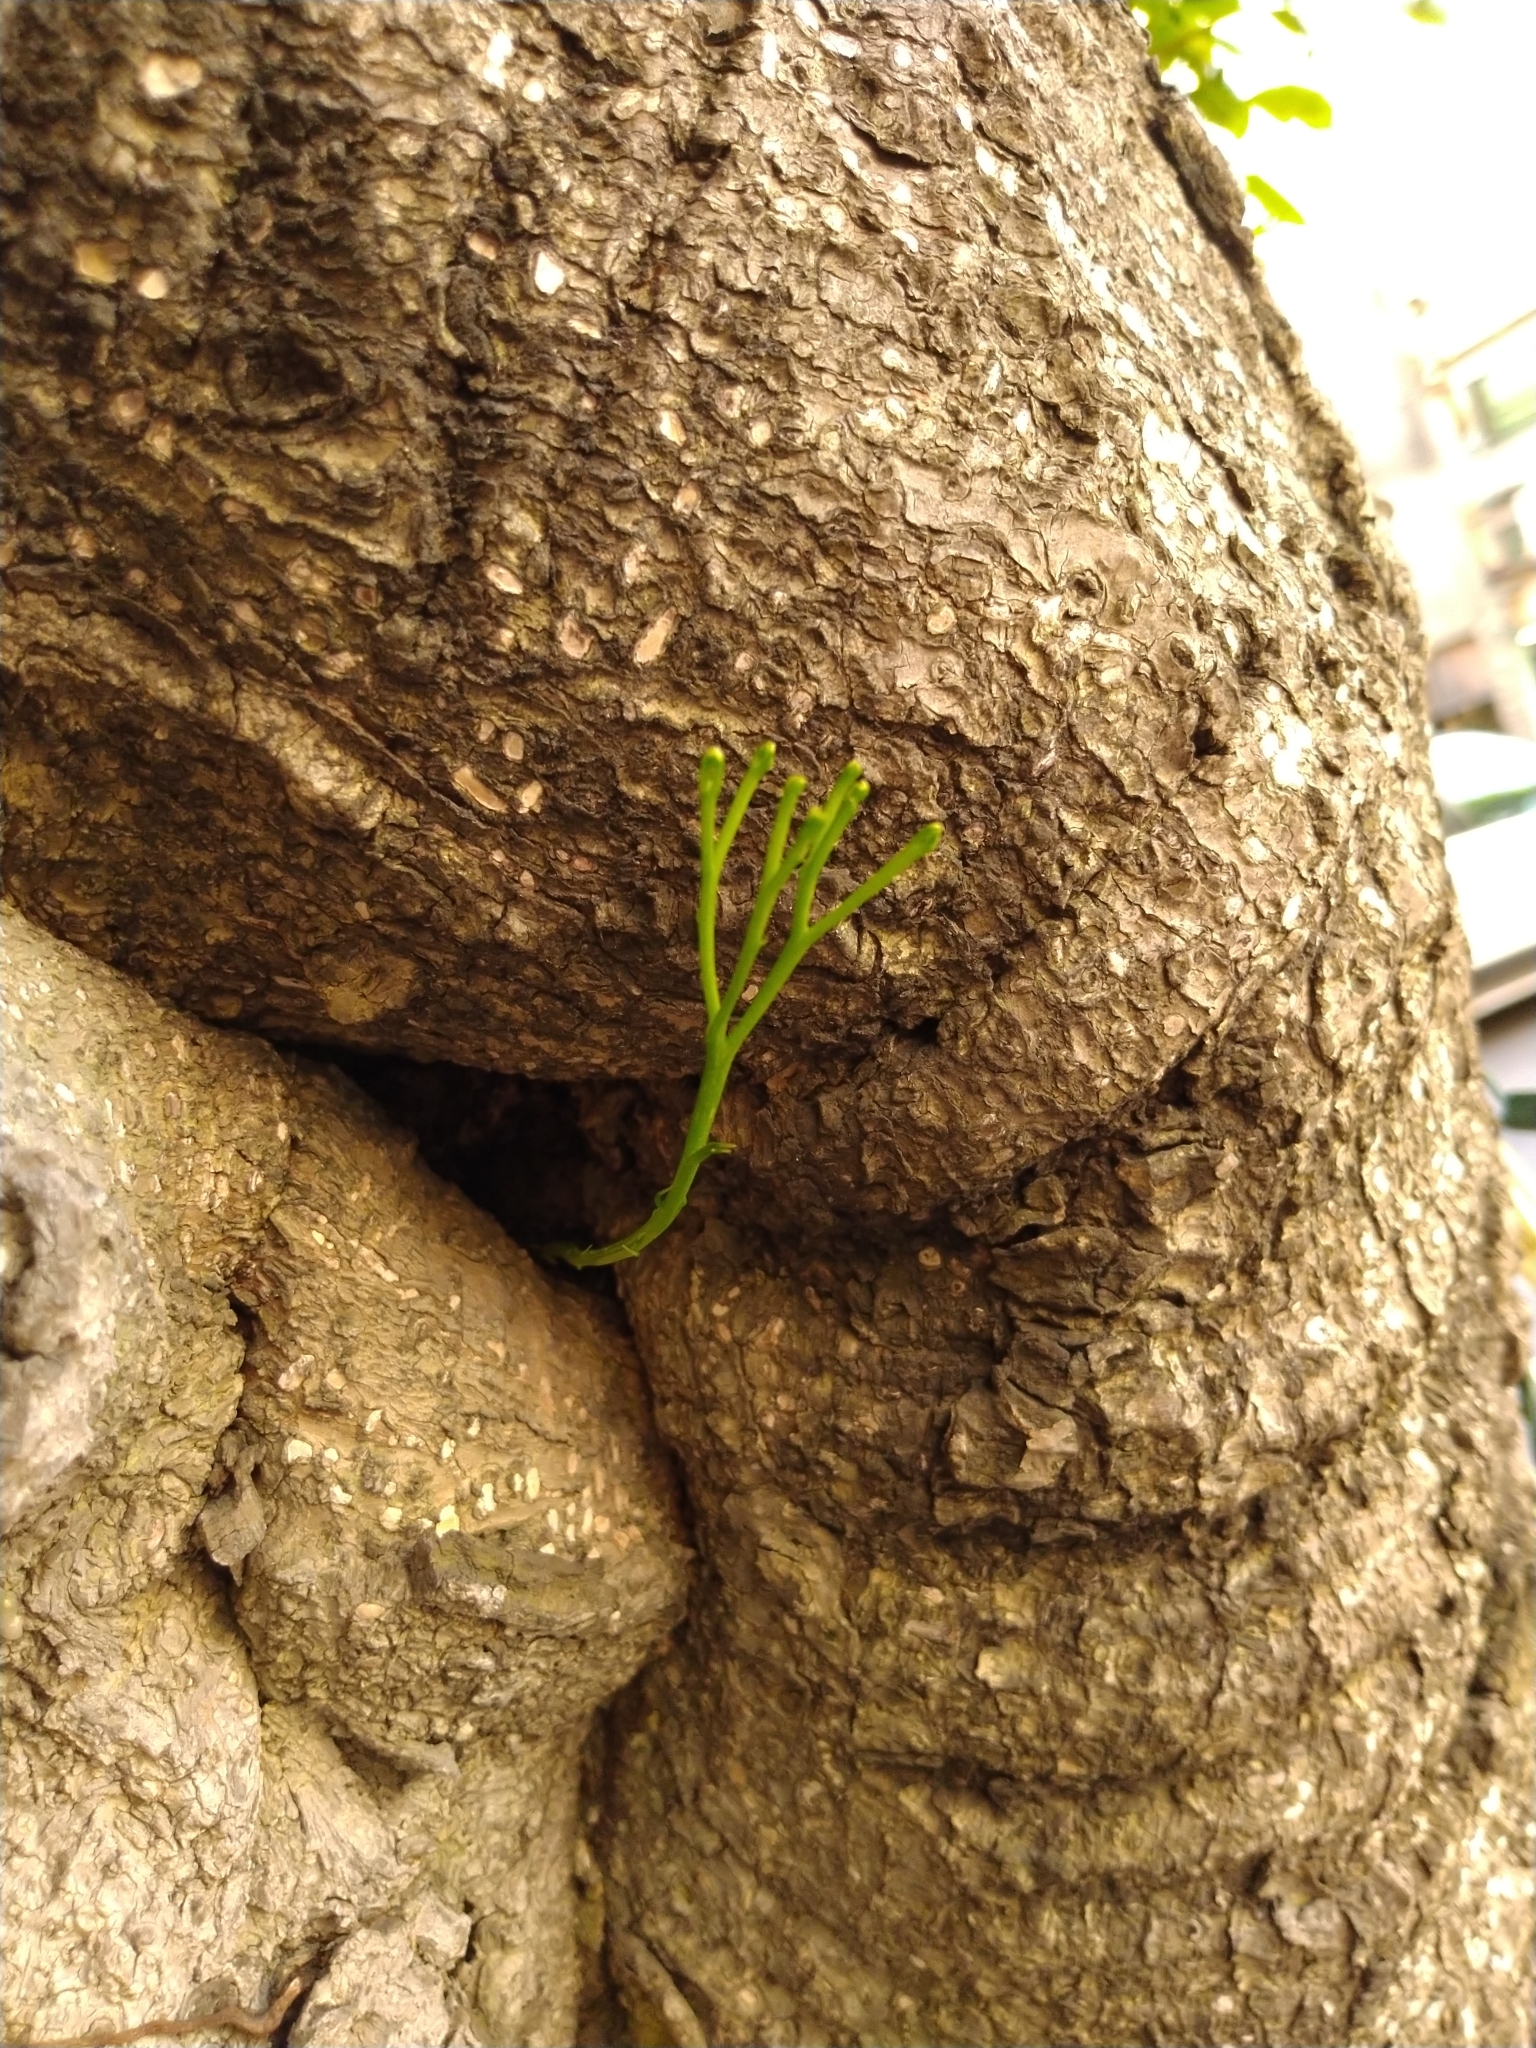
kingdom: Plantae
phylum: Tracheophyta
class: Polypodiopsida
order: Psilotales
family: Psilotaceae
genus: Psilotum
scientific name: Psilotum nudum
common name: Skeleton fork fern
